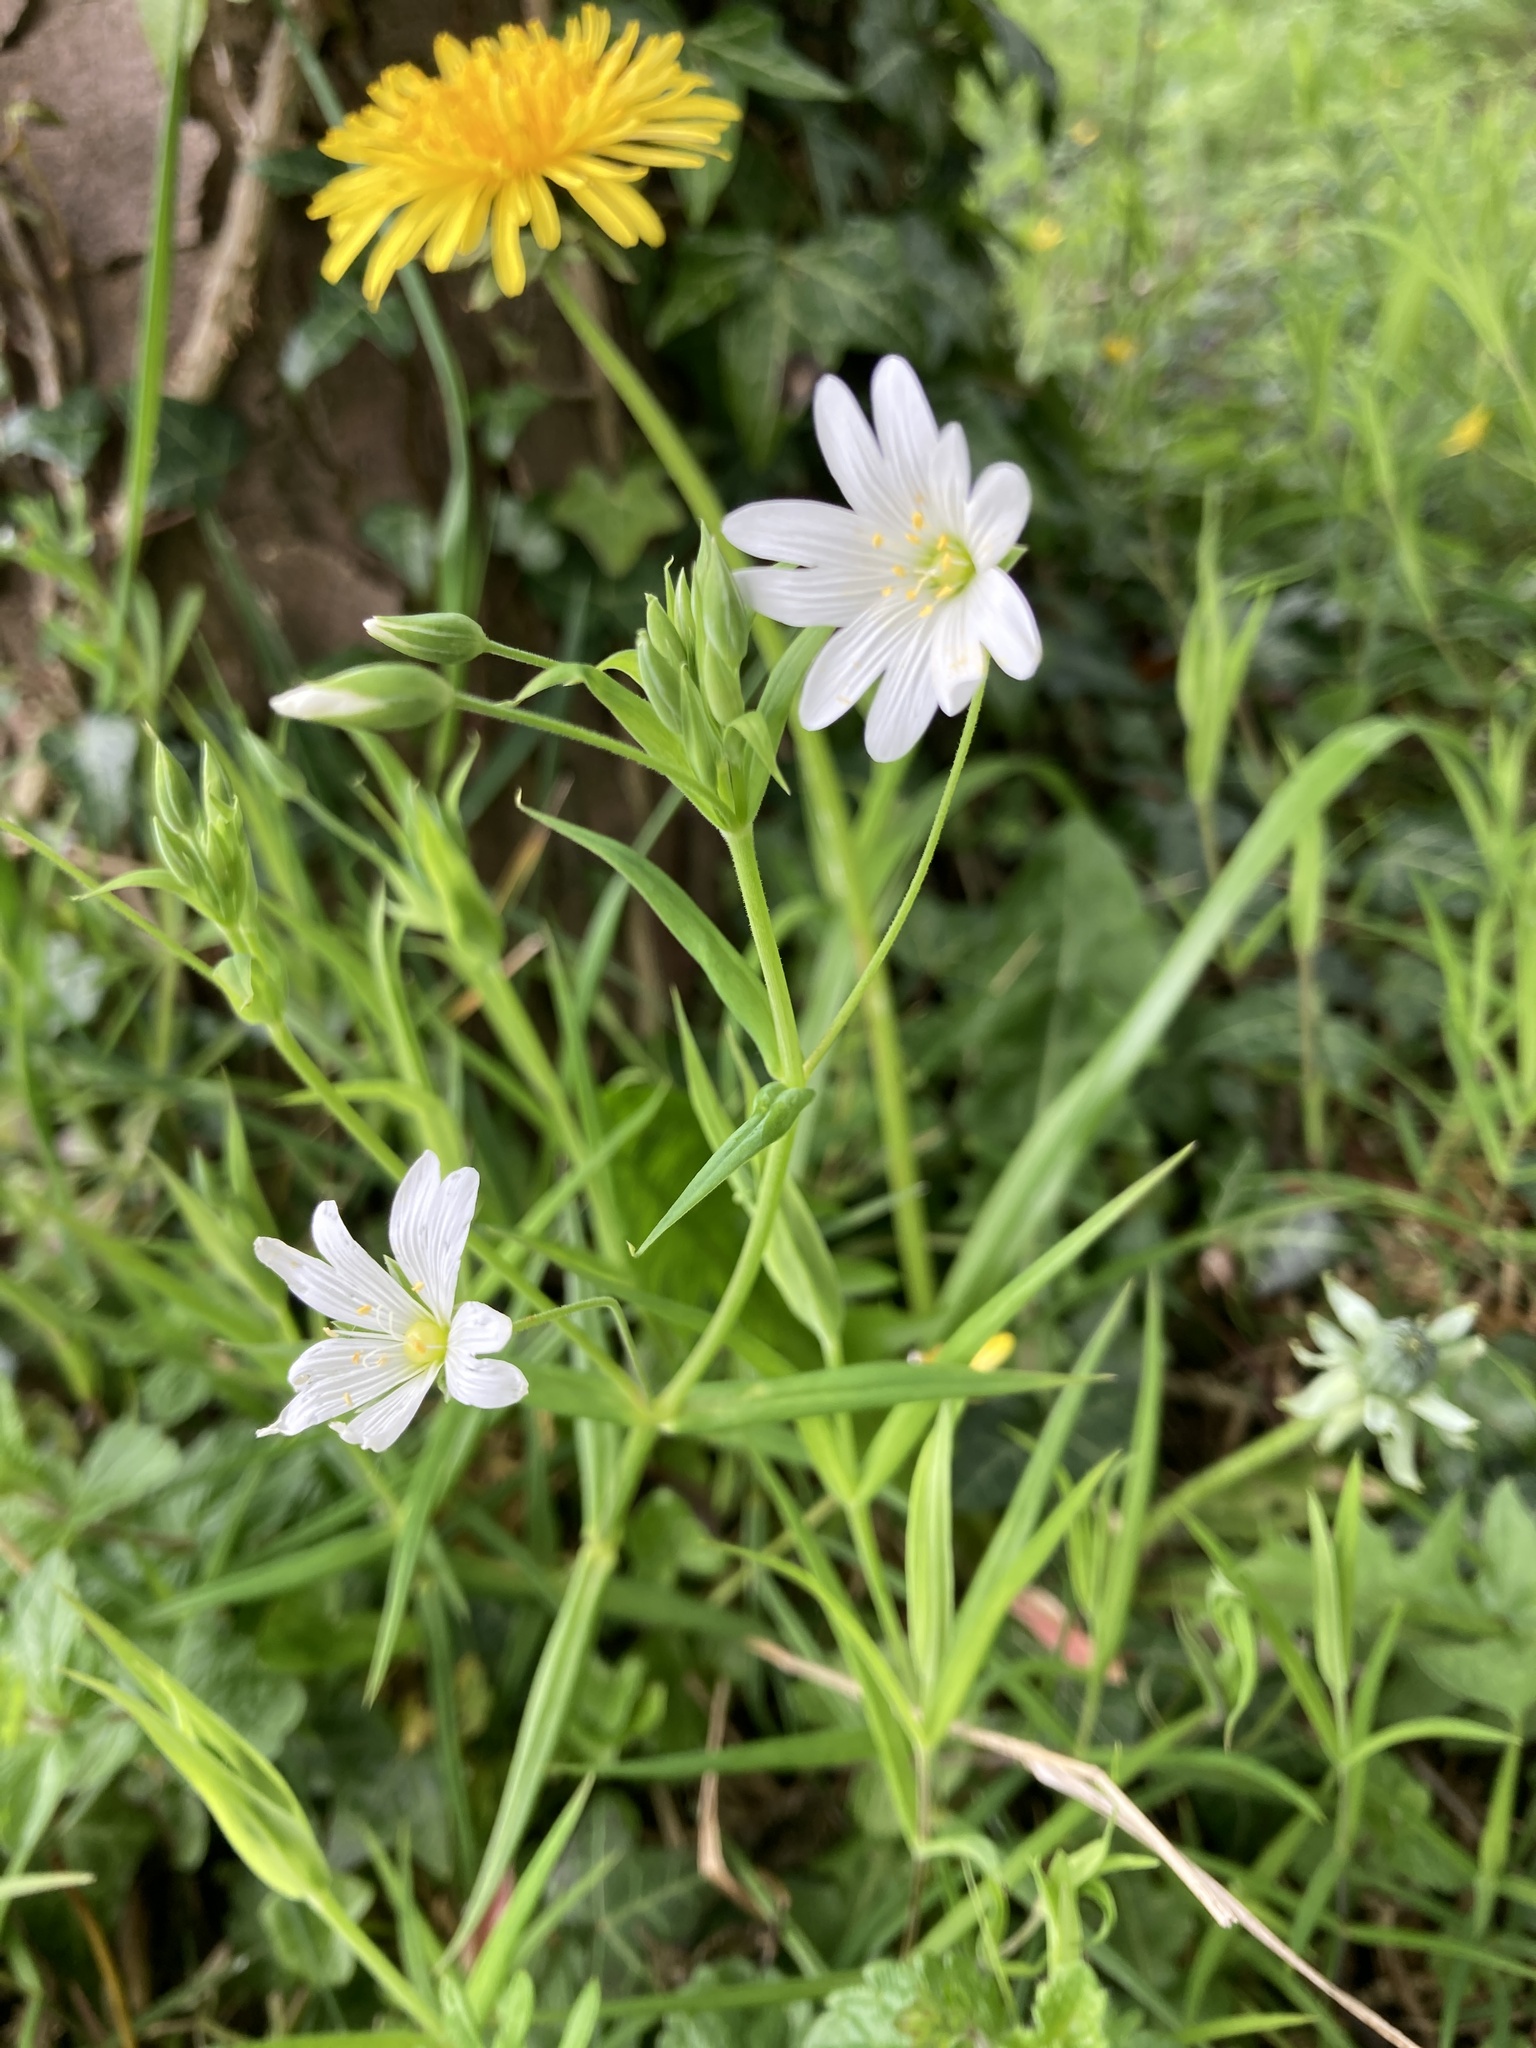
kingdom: Plantae
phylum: Tracheophyta
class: Magnoliopsida
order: Caryophyllales
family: Caryophyllaceae
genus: Rabelera
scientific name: Rabelera holostea
